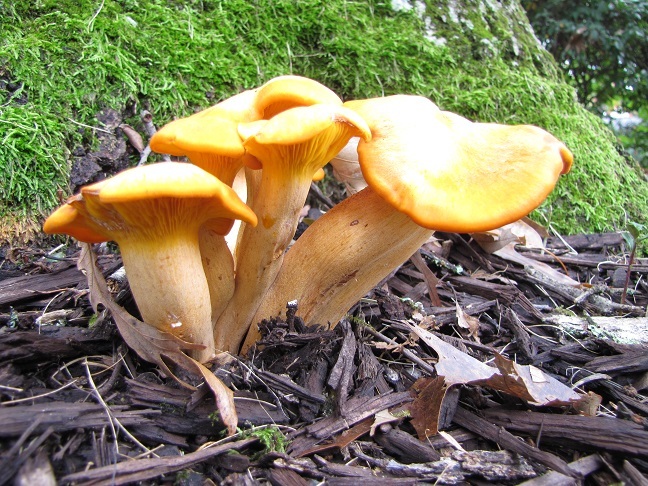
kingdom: Fungi
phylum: Basidiomycota
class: Agaricomycetes
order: Agaricales
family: Omphalotaceae
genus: Omphalotus
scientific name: Omphalotus illudens
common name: Jack o lantern
